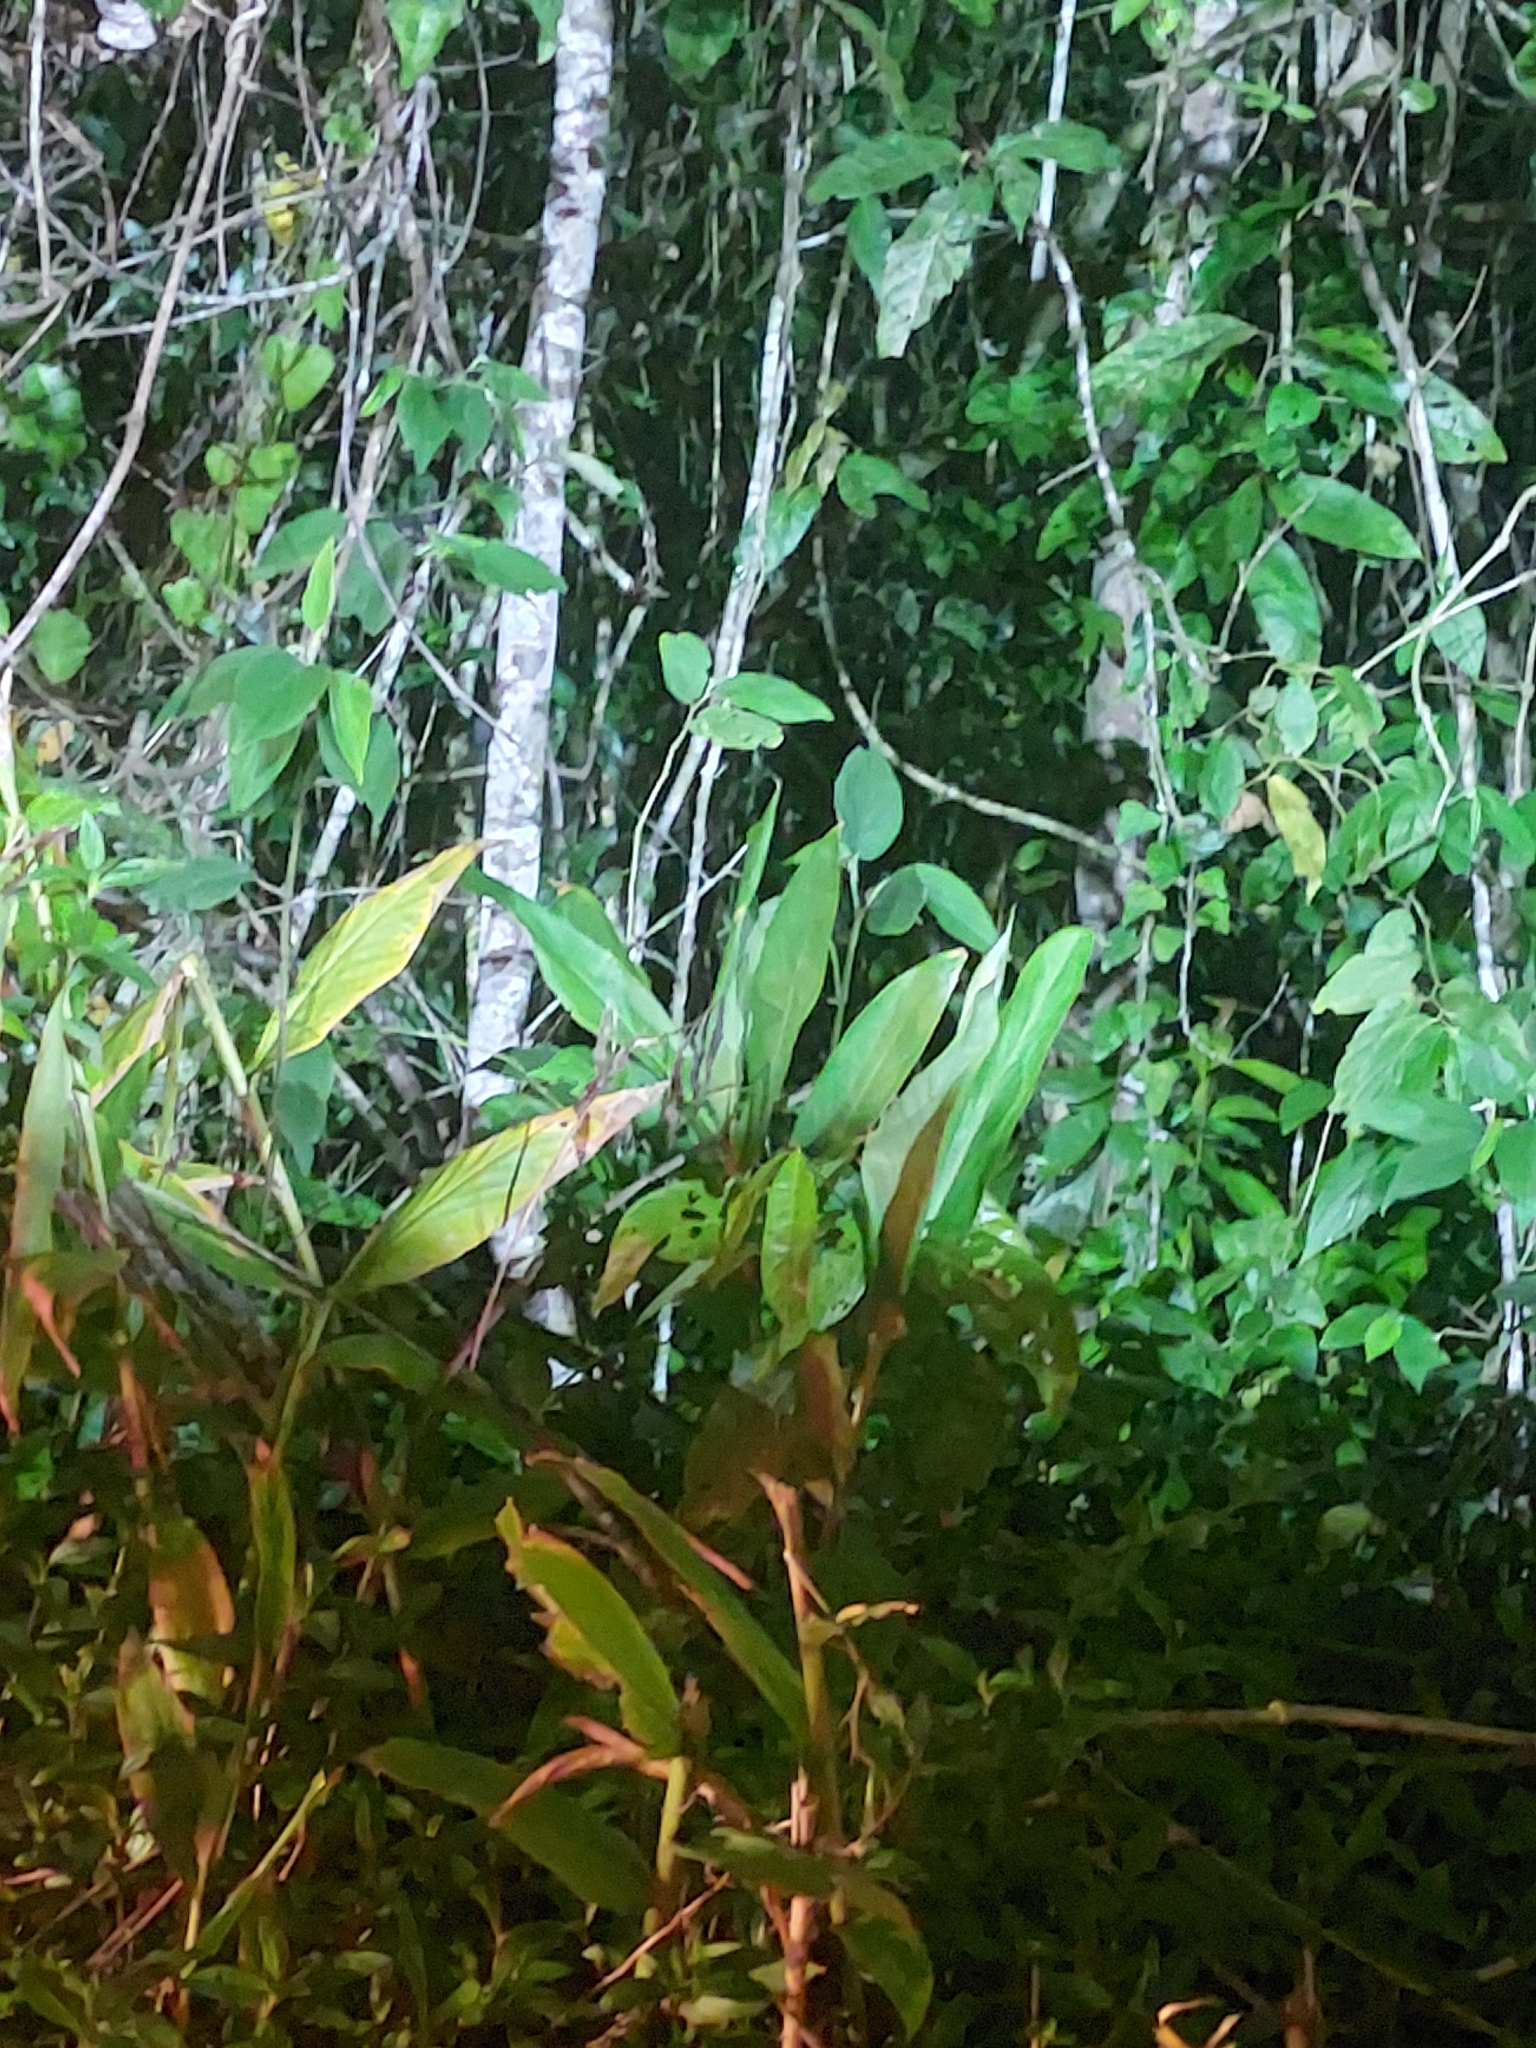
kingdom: Plantae
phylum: Tracheophyta
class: Liliopsida
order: Zingiberales
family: Zingiberaceae
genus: Hedychium
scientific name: Hedychium coronarium
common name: White garland-lily
